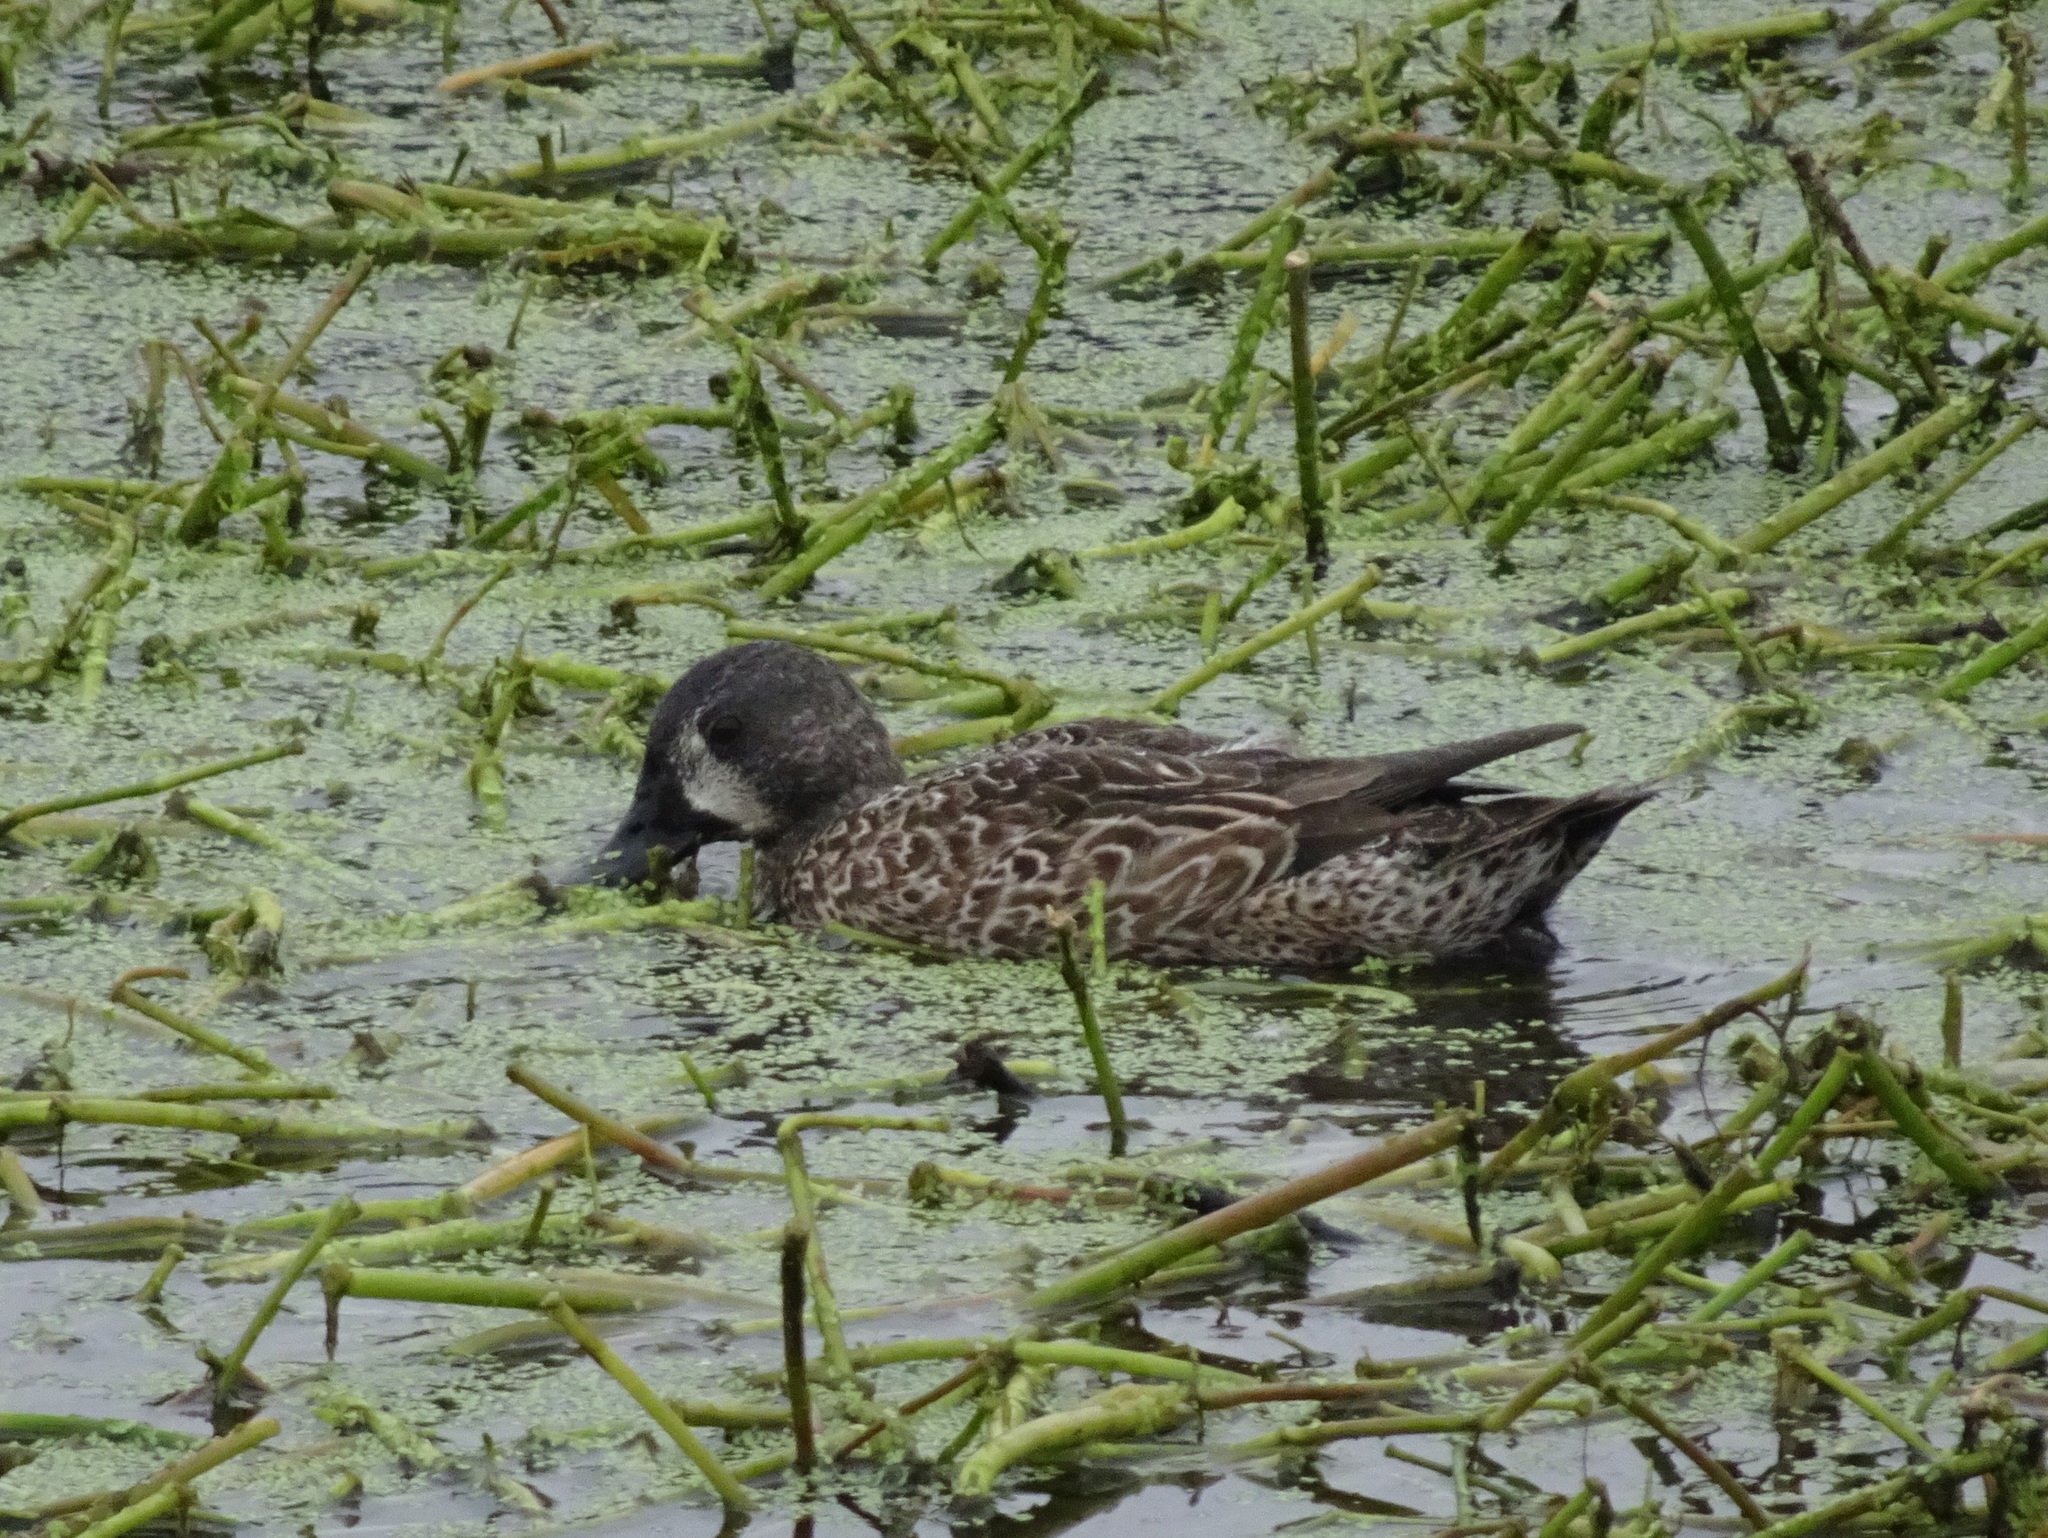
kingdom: Animalia
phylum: Chordata
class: Aves
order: Anseriformes
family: Anatidae
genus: Spatula
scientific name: Spatula discors
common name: Blue-winged teal
